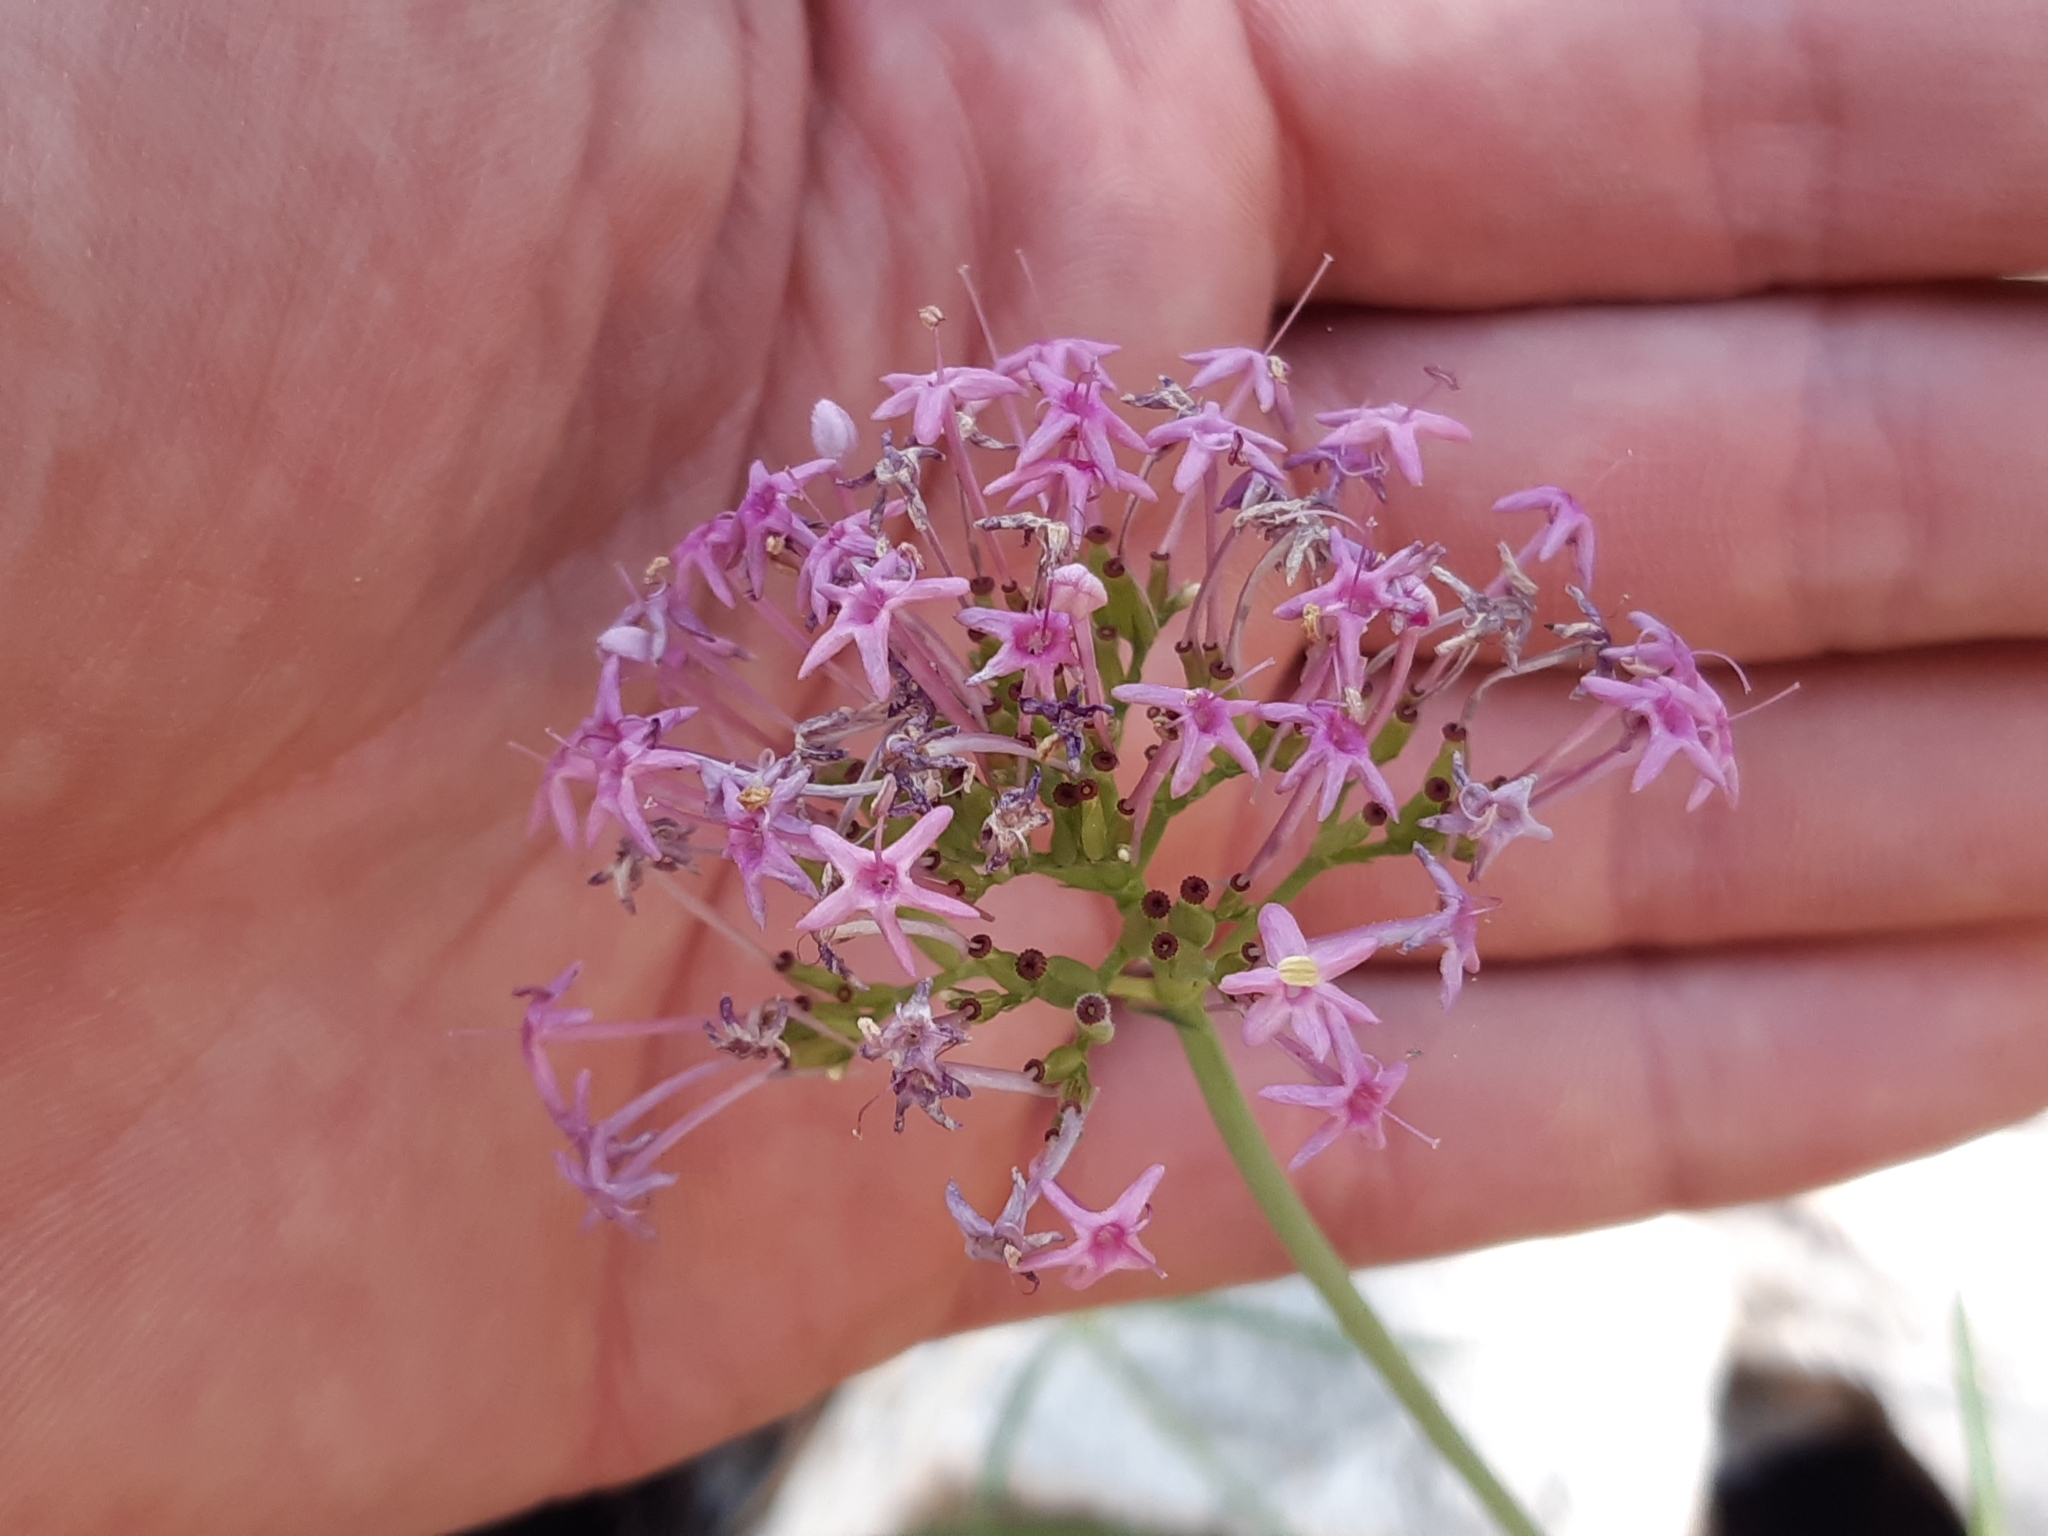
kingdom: Plantae
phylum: Tracheophyta
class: Magnoliopsida
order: Dipsacales
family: Caprifoliaceae
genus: Centranthus
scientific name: Centranthus angustifolius
